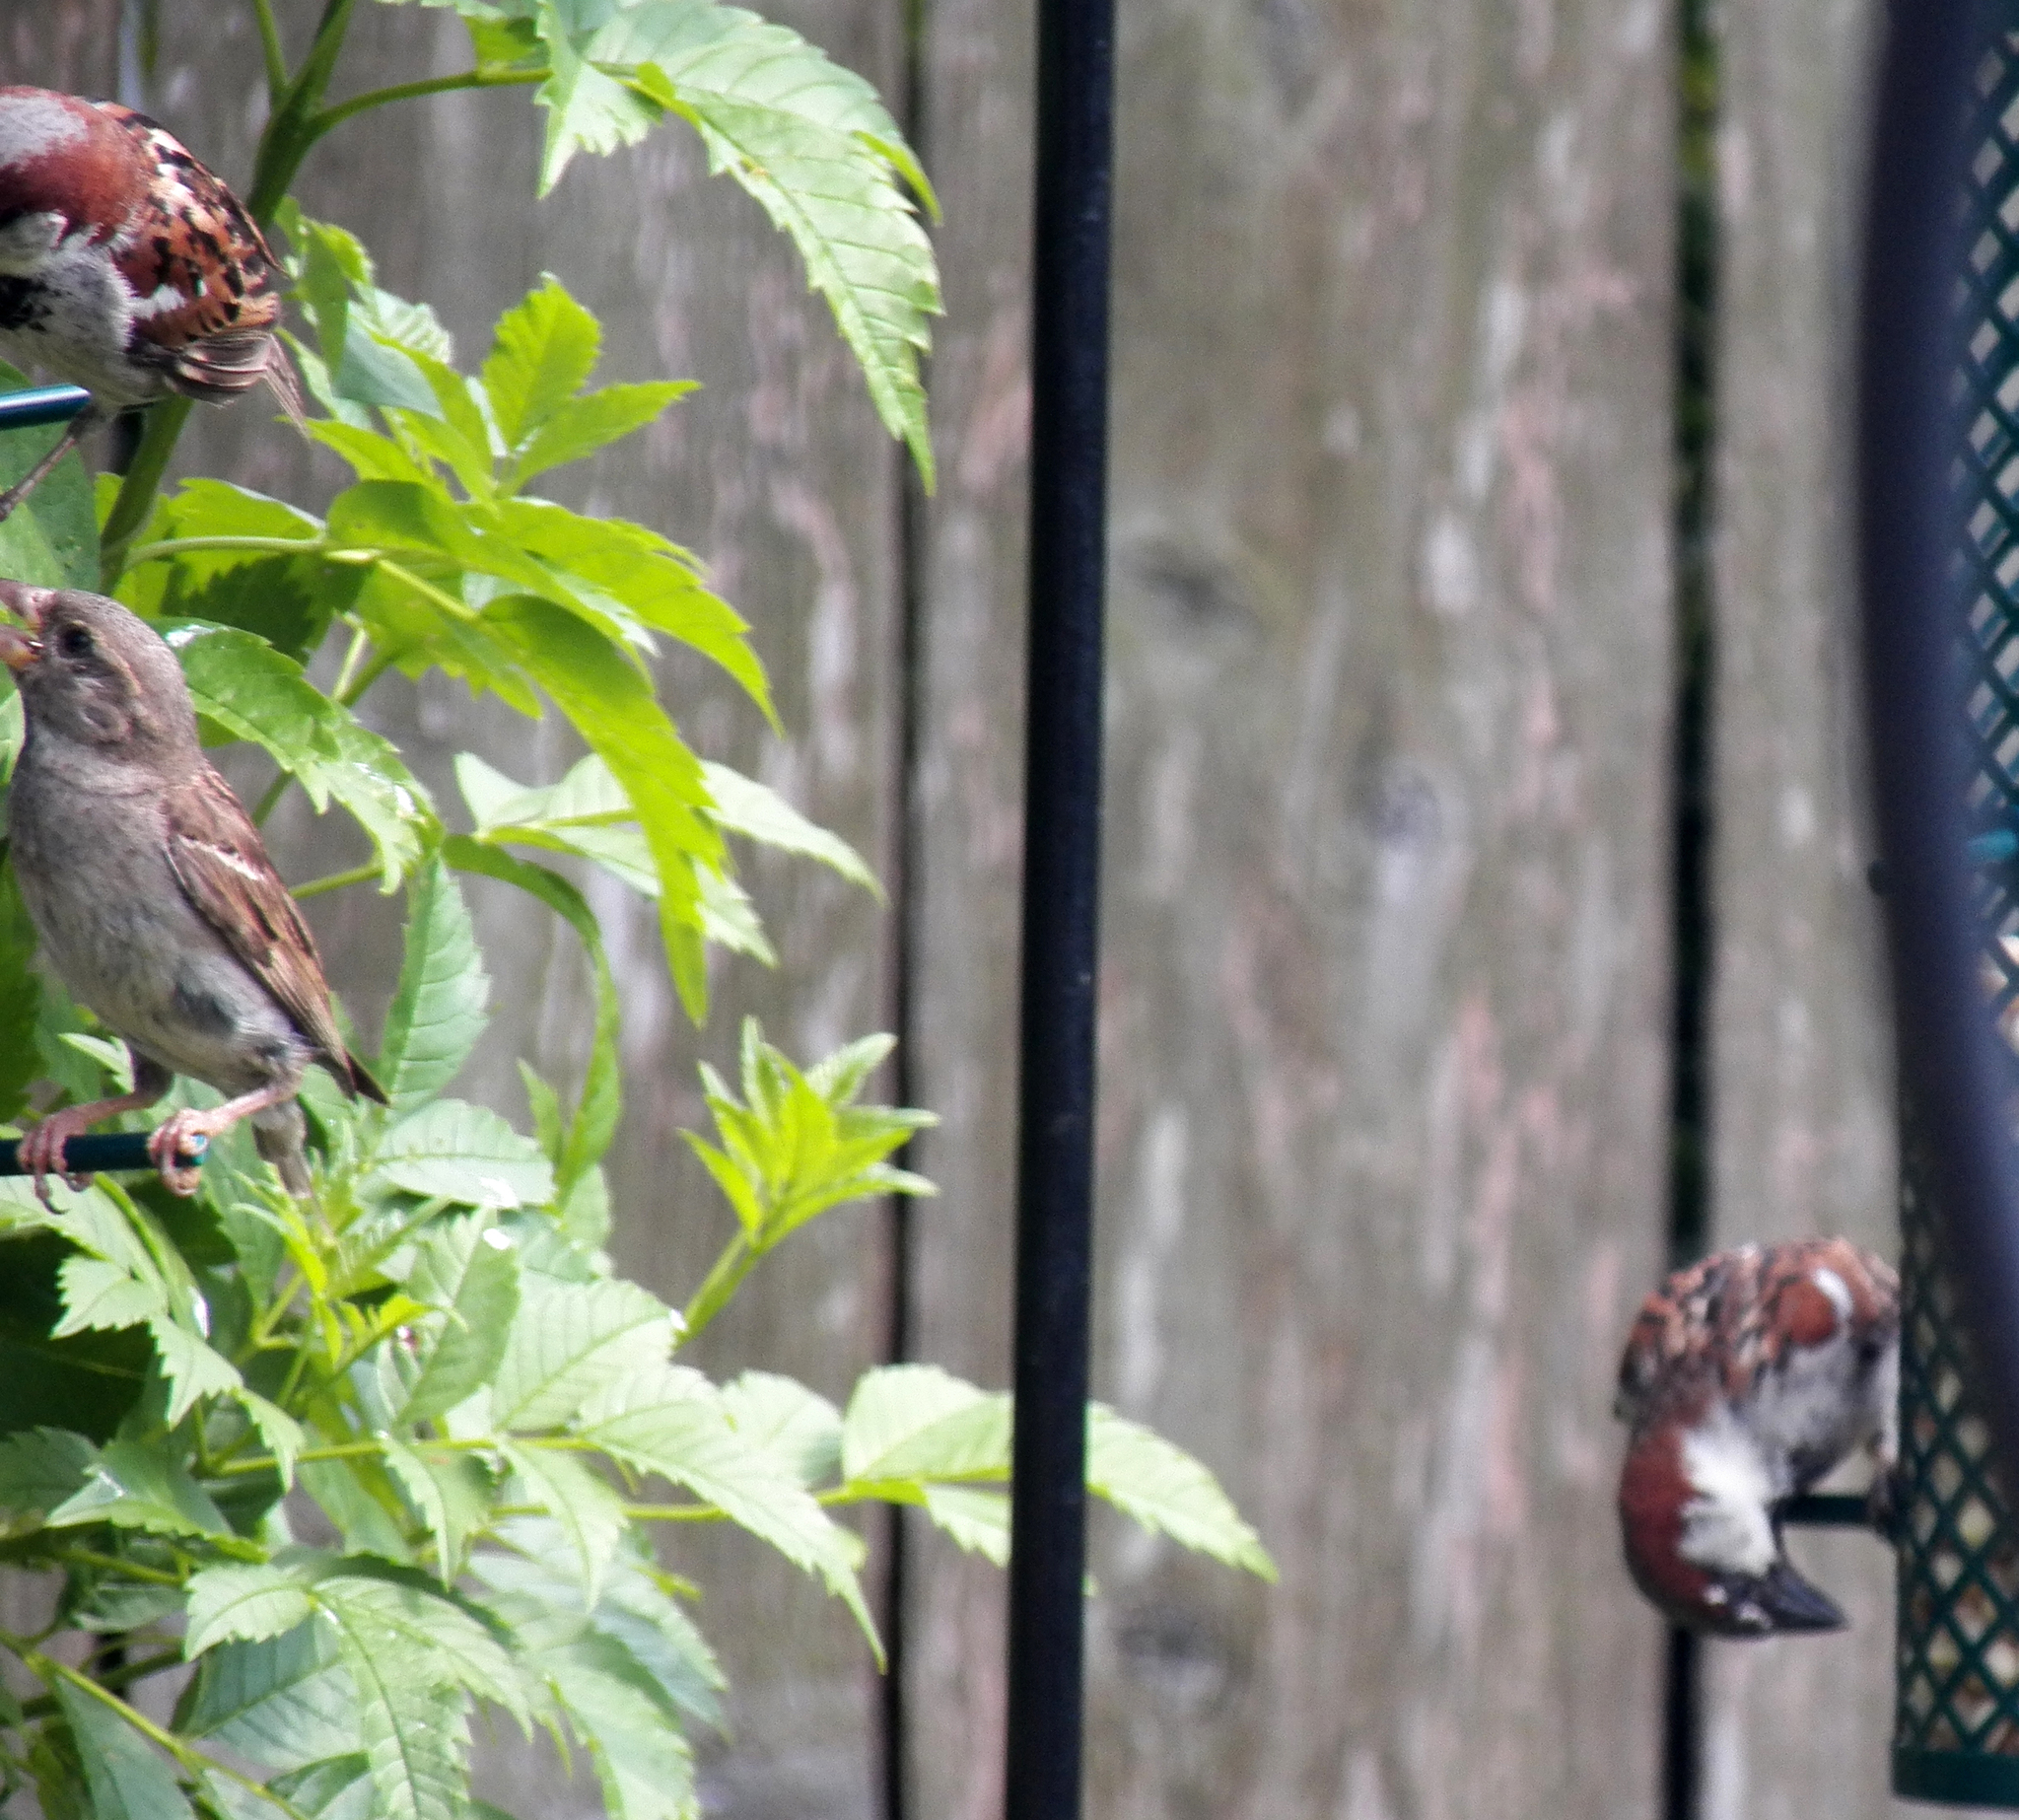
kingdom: Animalia
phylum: Chordata
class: Aves
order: Passeriformes
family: Passeridae
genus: Passer
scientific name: Passer domesticus
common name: House sparrow
